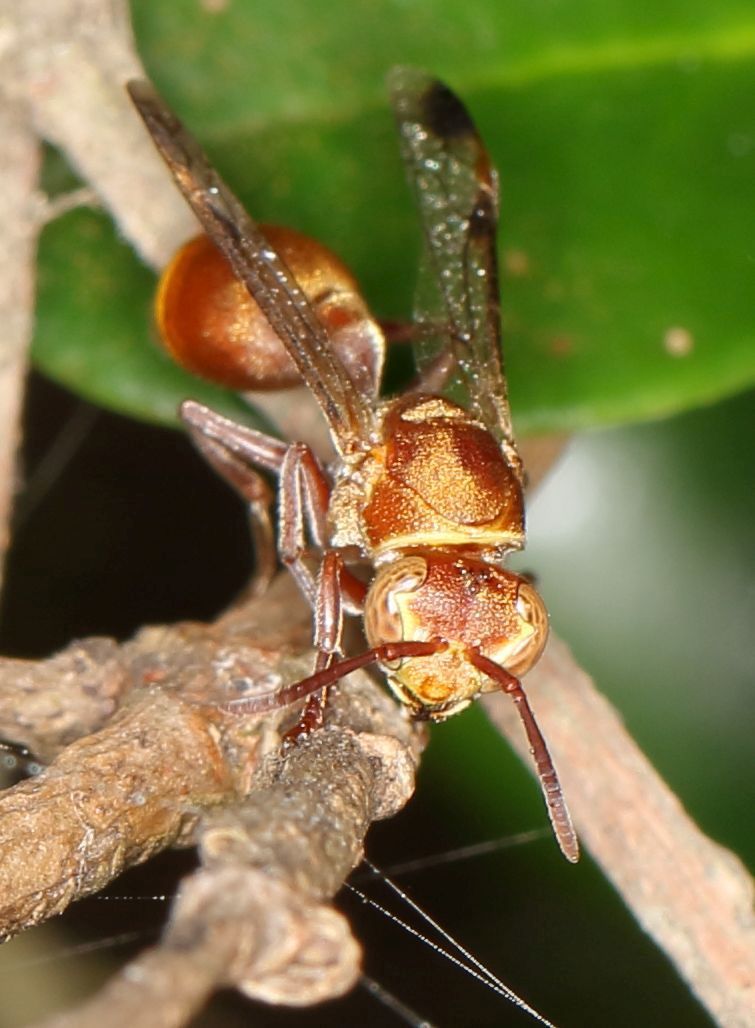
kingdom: Animalia
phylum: Arthropoda
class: Insecta
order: Hymenoptera
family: Vespidae
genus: Ropalidia
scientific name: Ropalidia distigma
